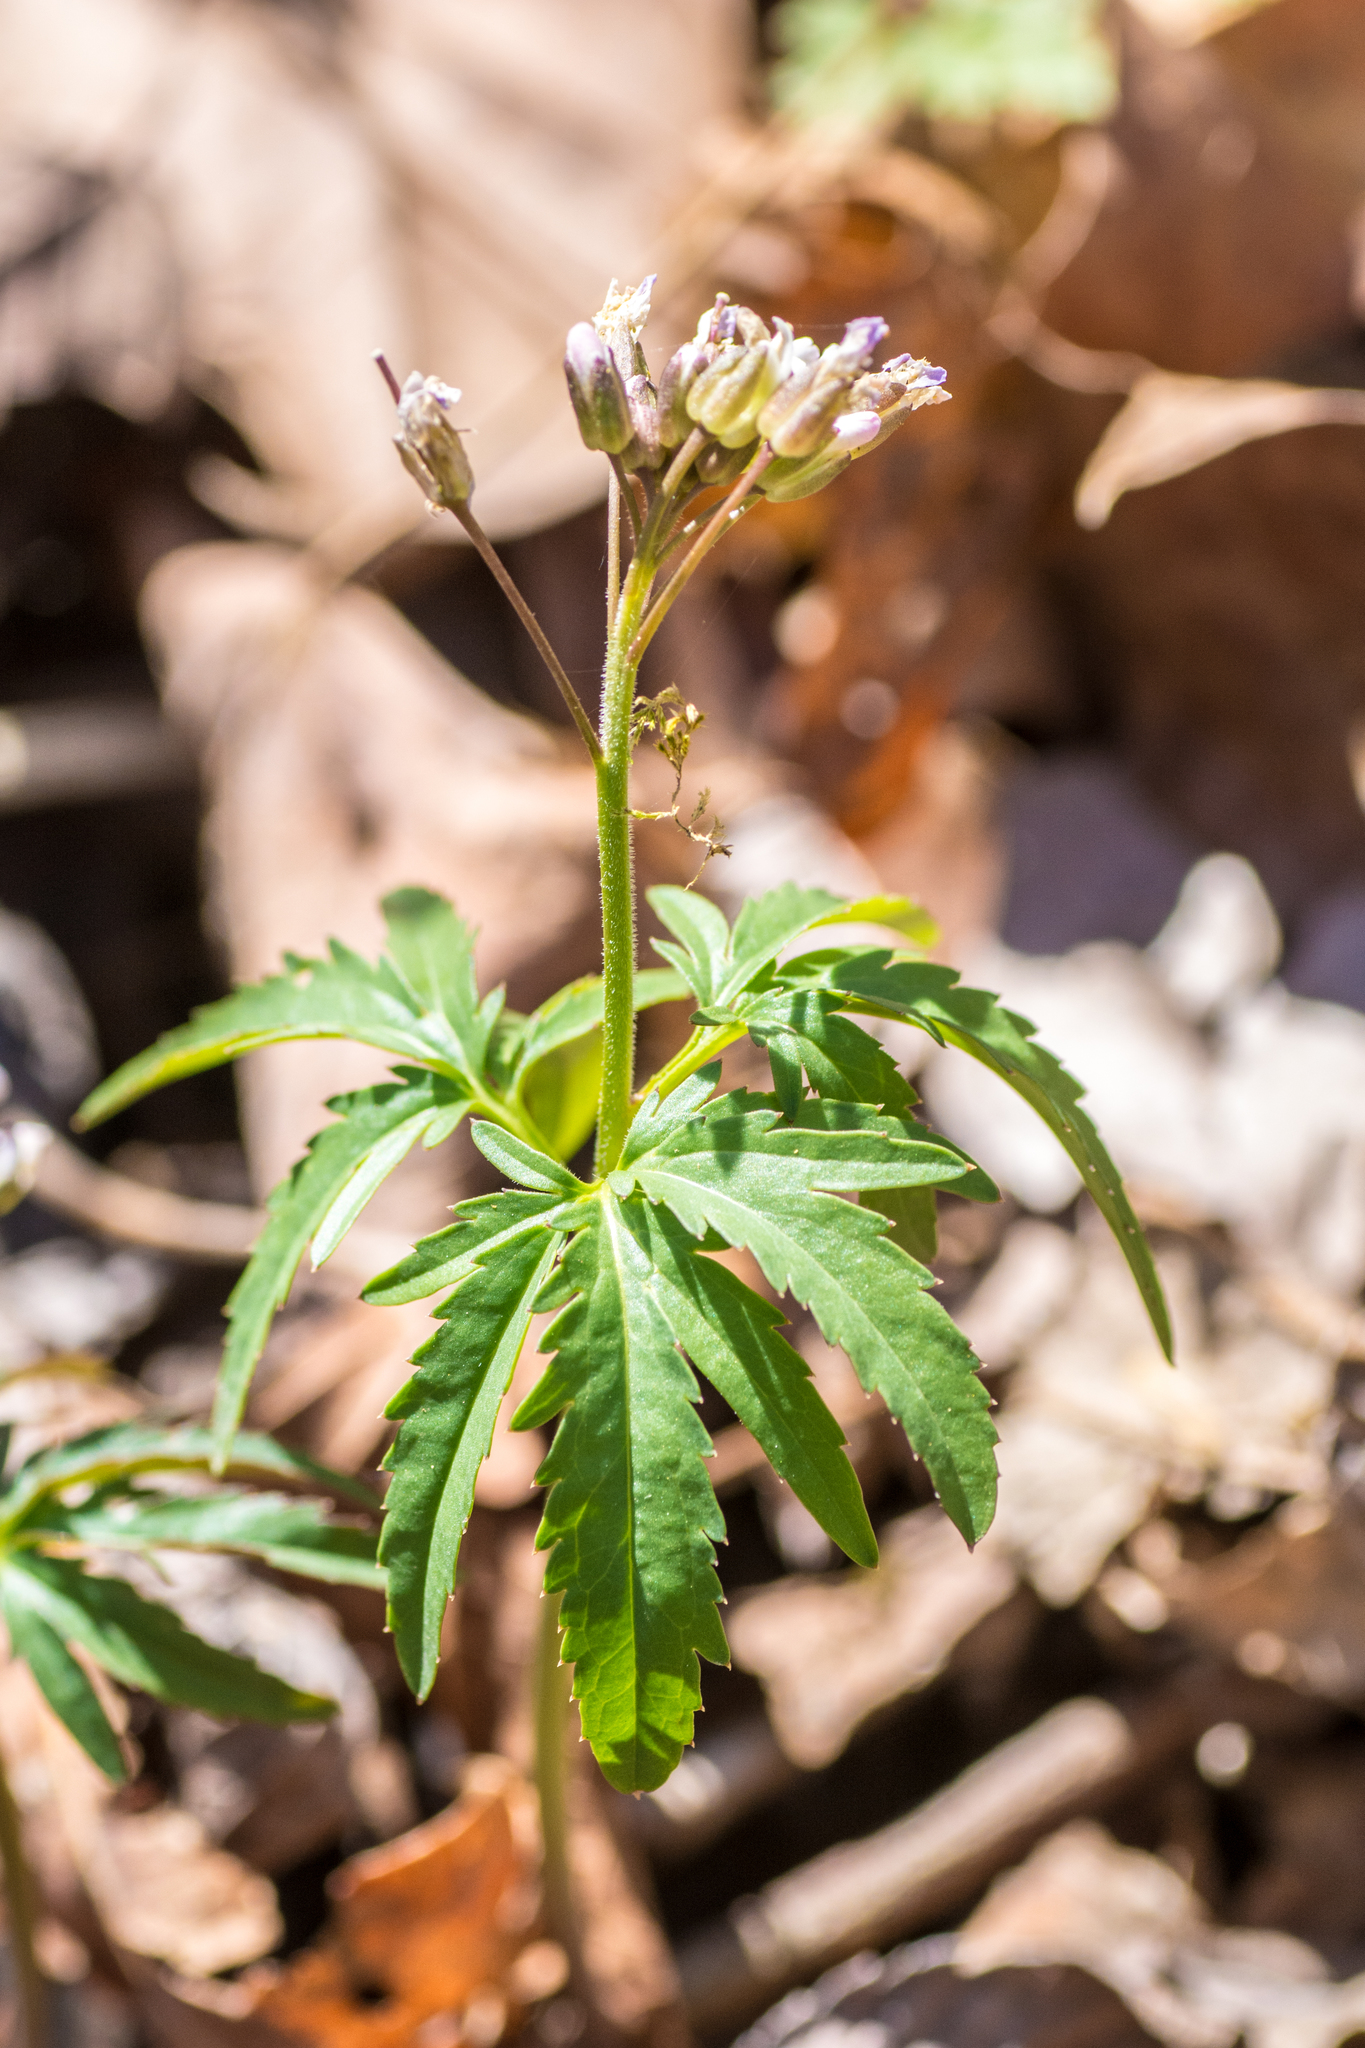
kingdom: Plantae
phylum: Tracheophyta
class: Magnoliopsida
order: Brassicales
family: Brassicaceae
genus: Cardamine
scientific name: Cardamine concatenata
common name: Cut-leaf toothcup
